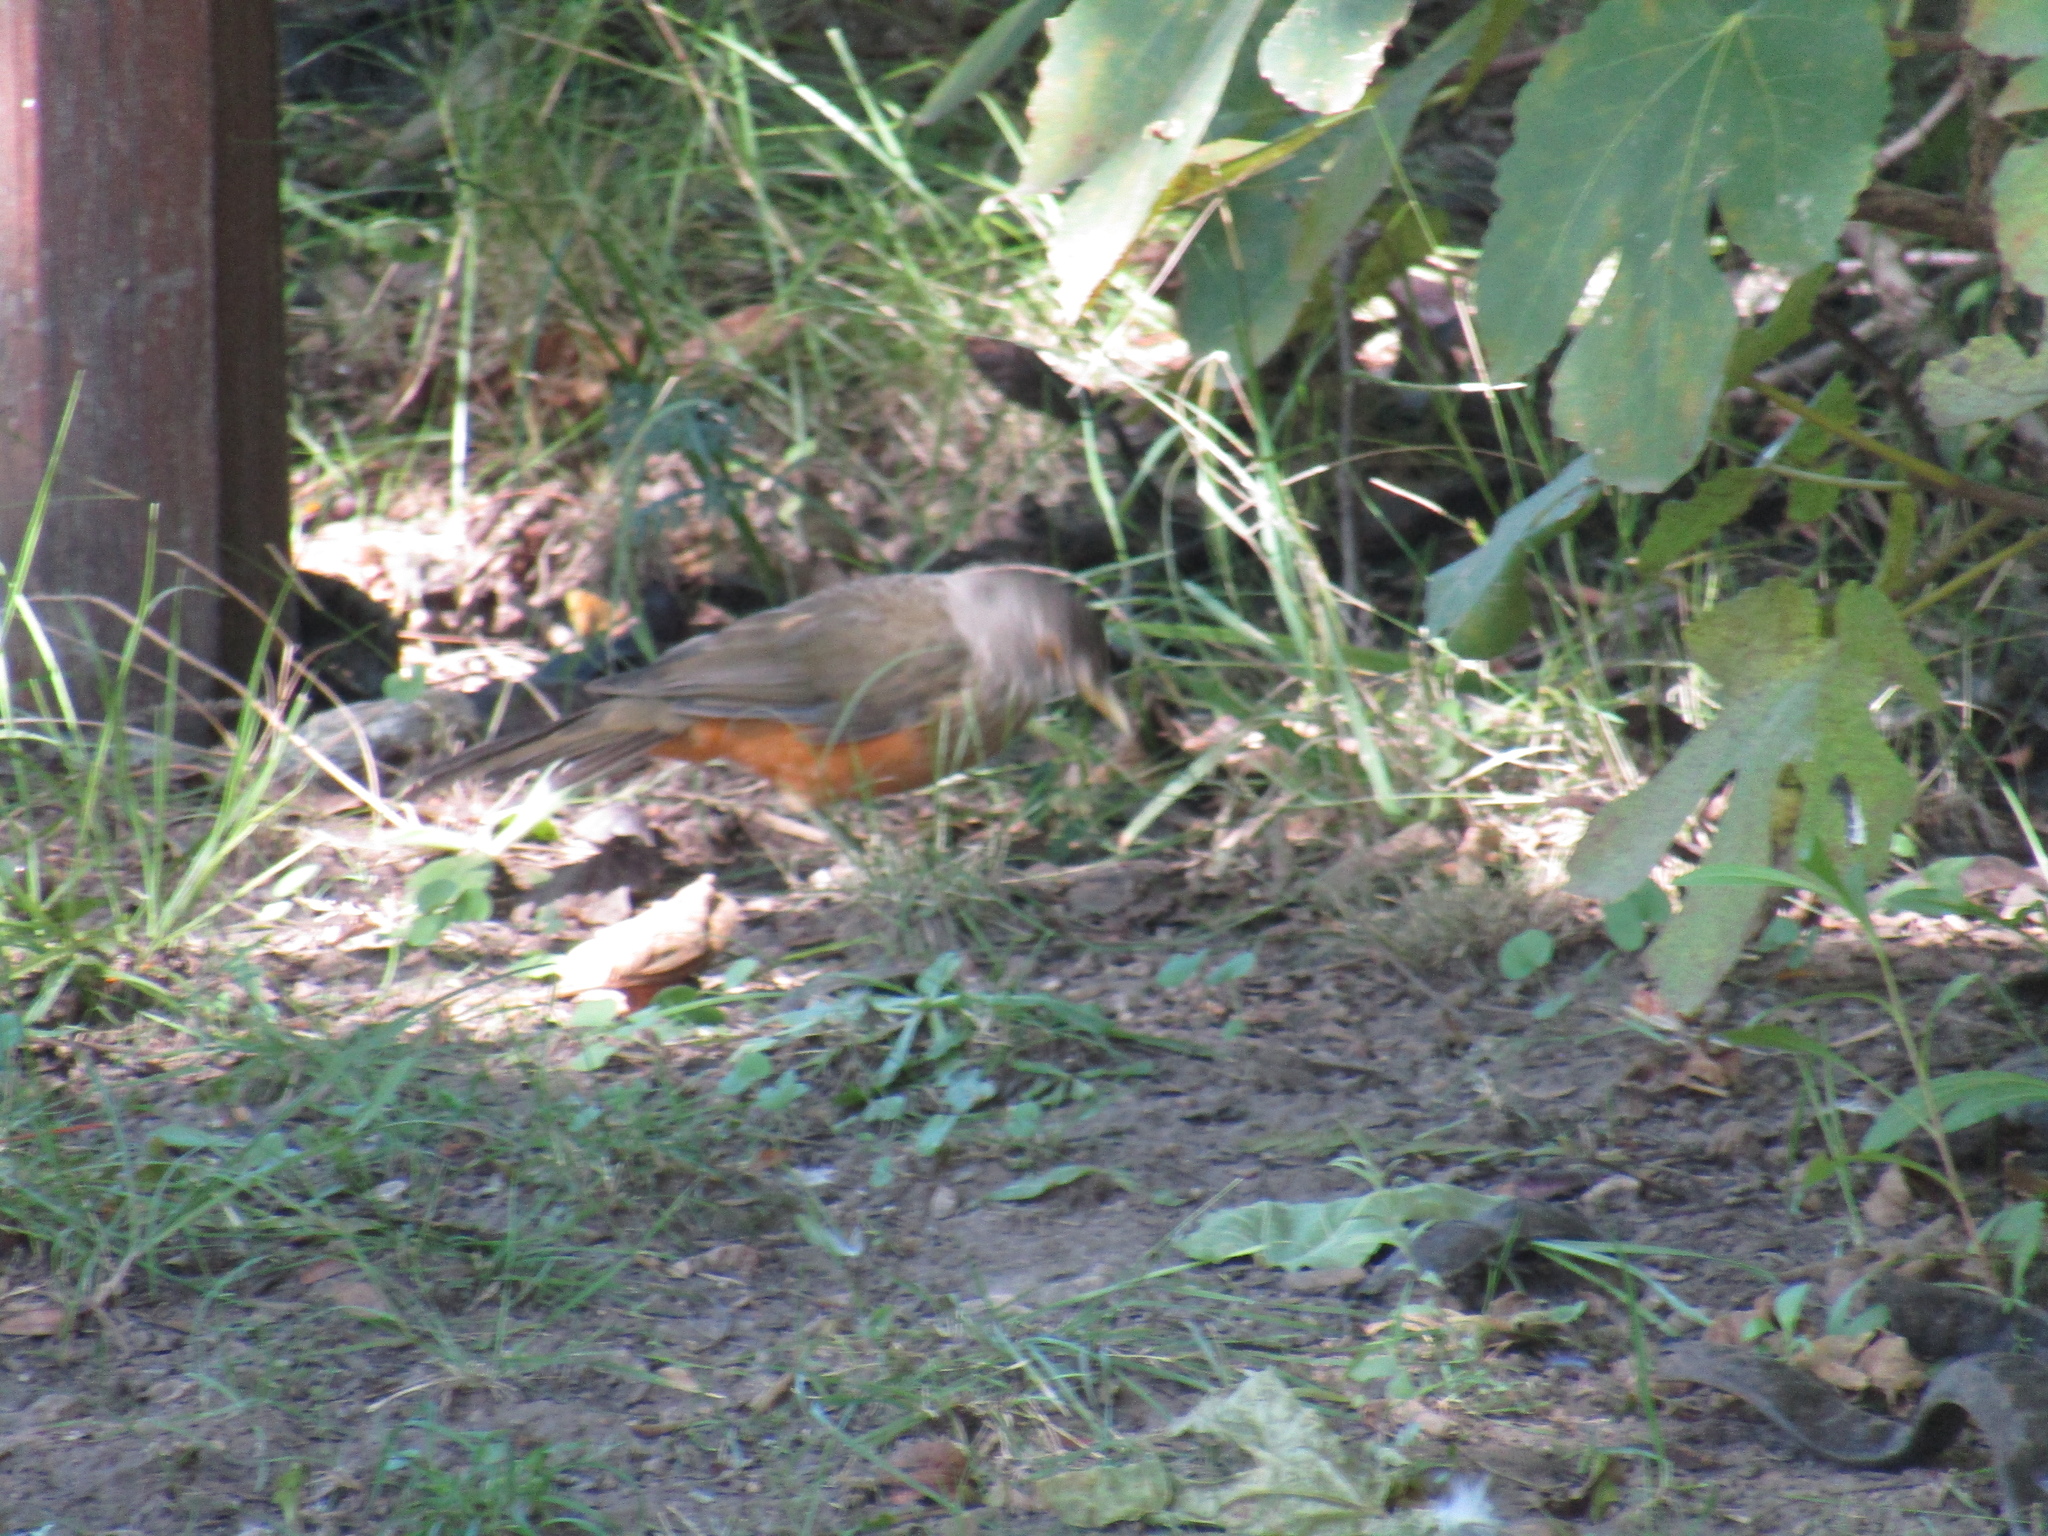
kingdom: Animalia
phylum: Chordata
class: Aves
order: Passeriformes
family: Turdidae
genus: Turdus
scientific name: Turdus rufiventris
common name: Rufous-bellied thrush
